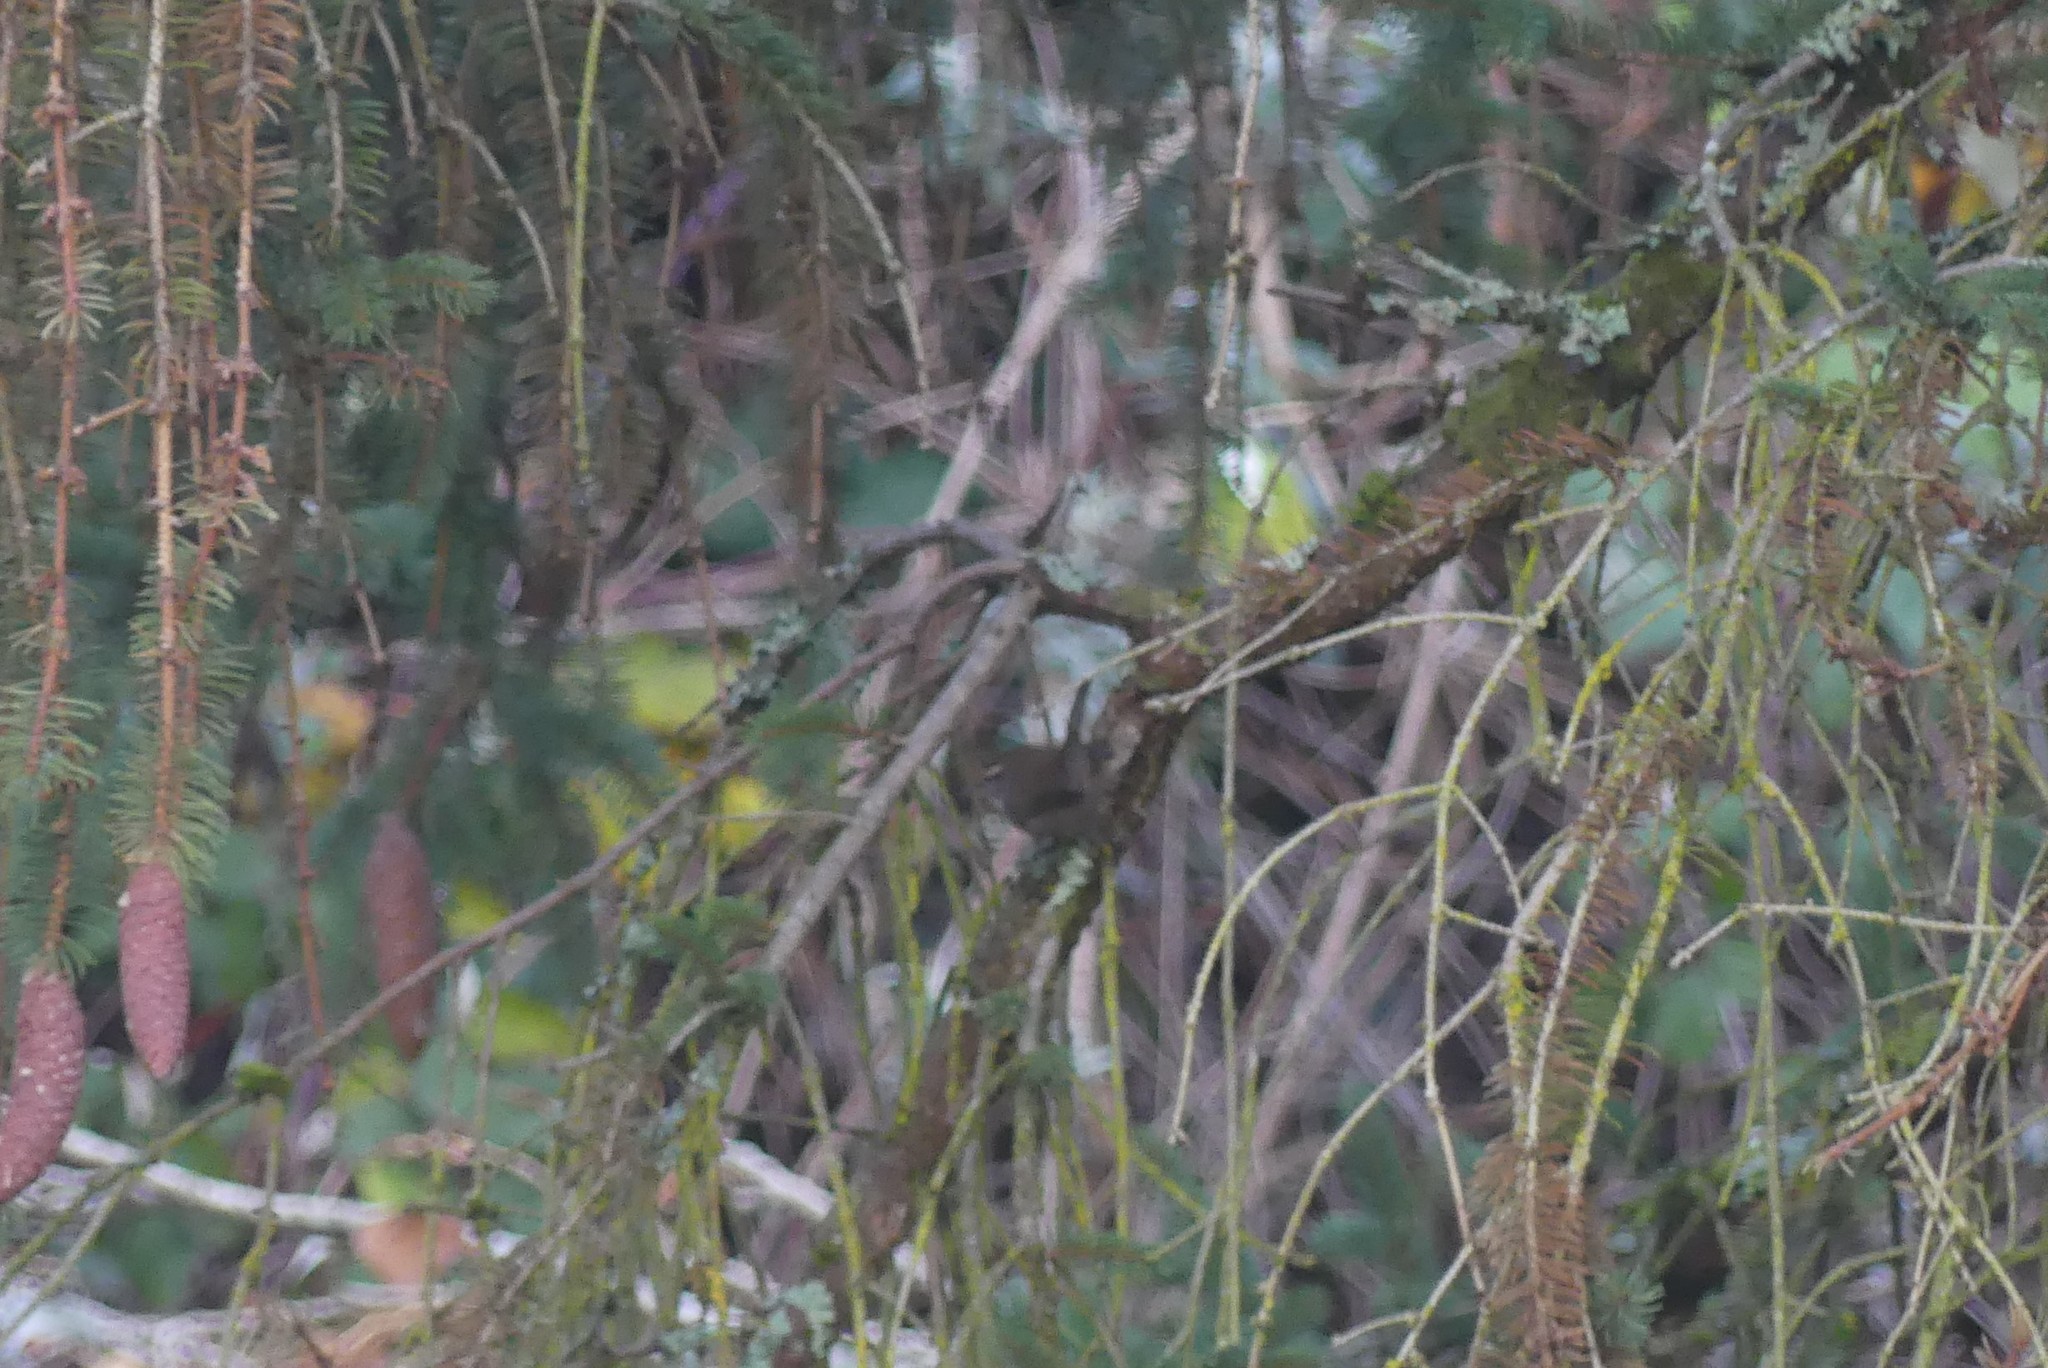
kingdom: Animalia
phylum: Chordata
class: Aves
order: Passeriformes
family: Troglodytidae
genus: Thryomanes
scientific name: Thryomanes bewickii
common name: Bewick's wren
